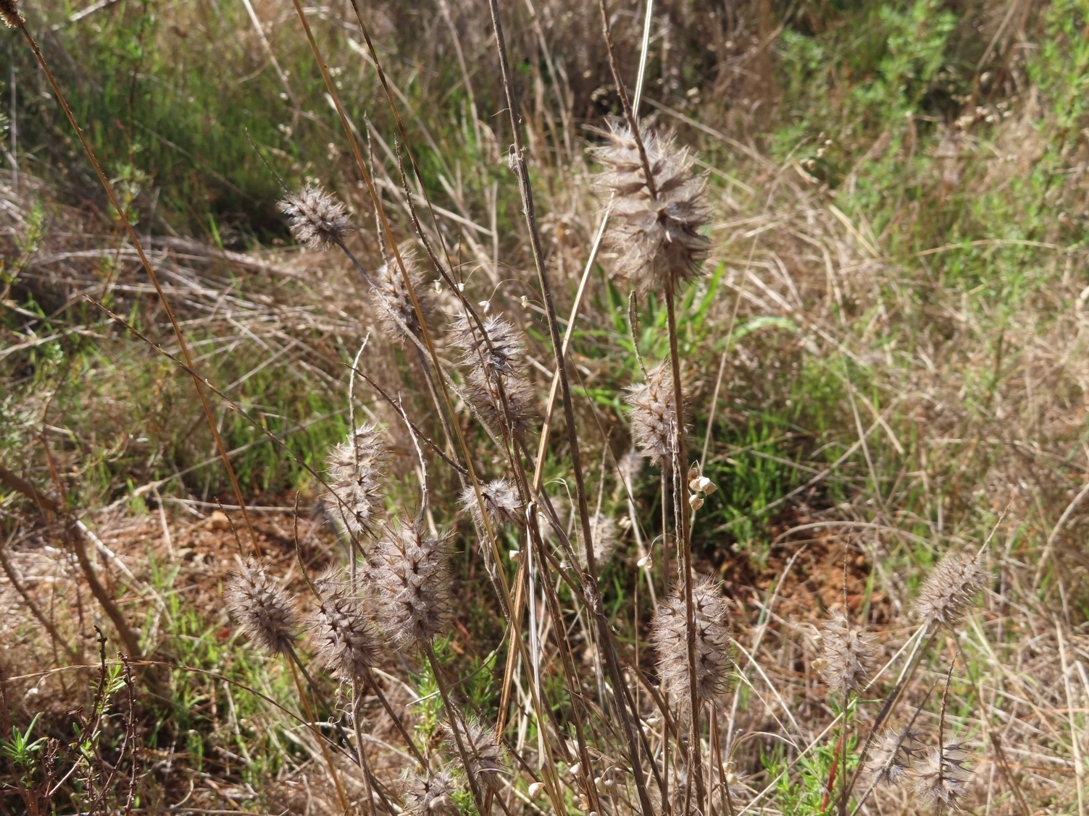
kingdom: Plantae
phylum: Tracheophyta
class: Magnoliopsida
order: Fabales
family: Fabaceae
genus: Trifolium
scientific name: Trifolium angustifolium
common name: Narrow clover
